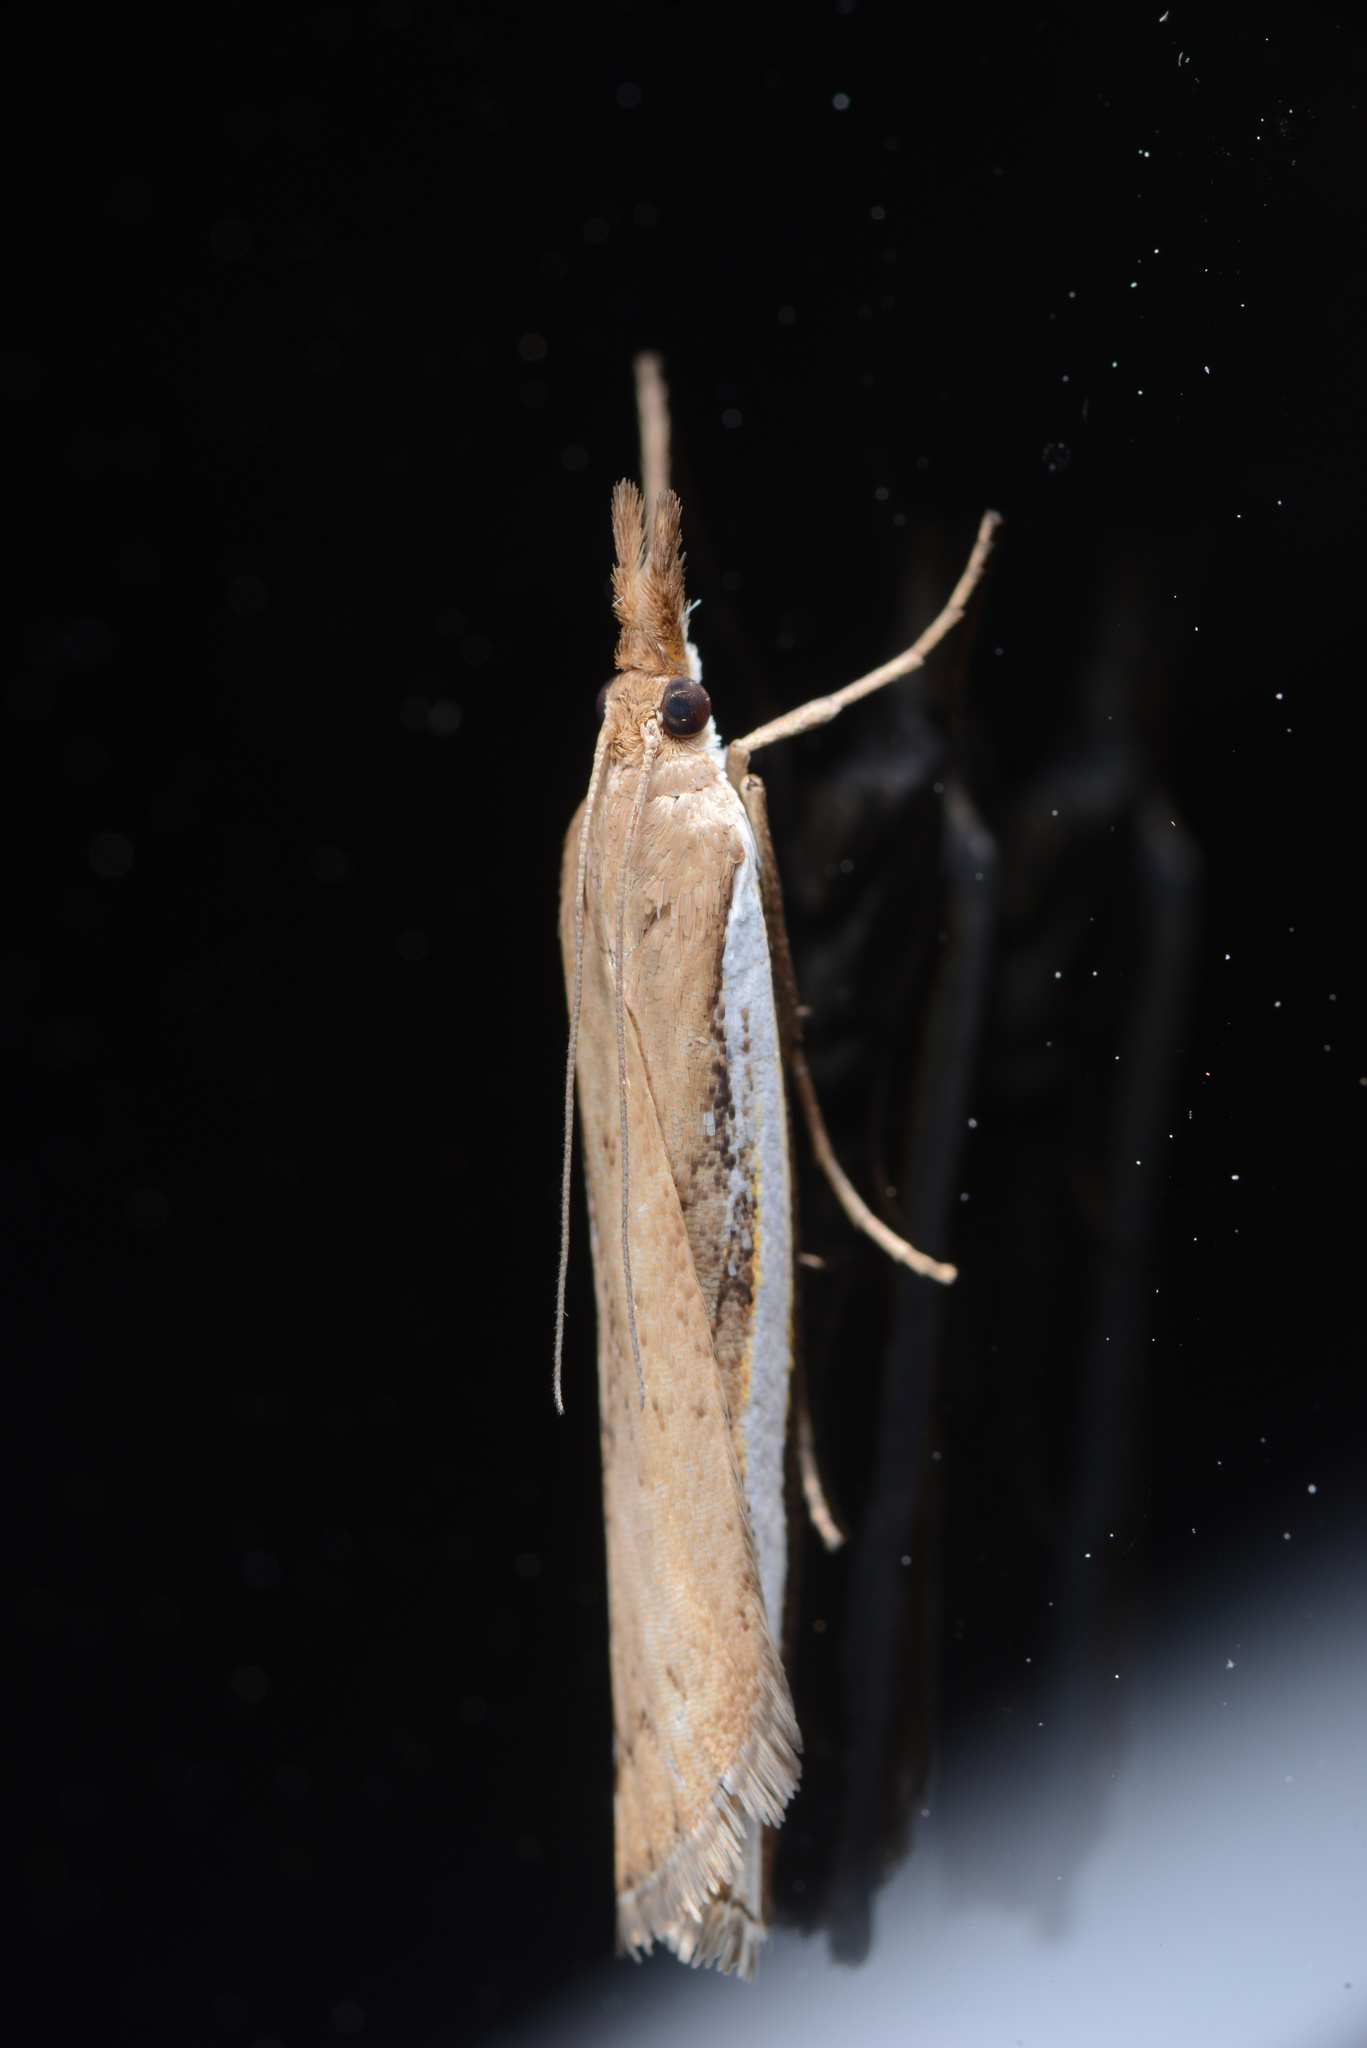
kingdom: Animalia
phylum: Arthropoda
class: Insecta
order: Lepidoptera
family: Crambidae
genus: Orocrambus
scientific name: Orocrambus flexuosellus
